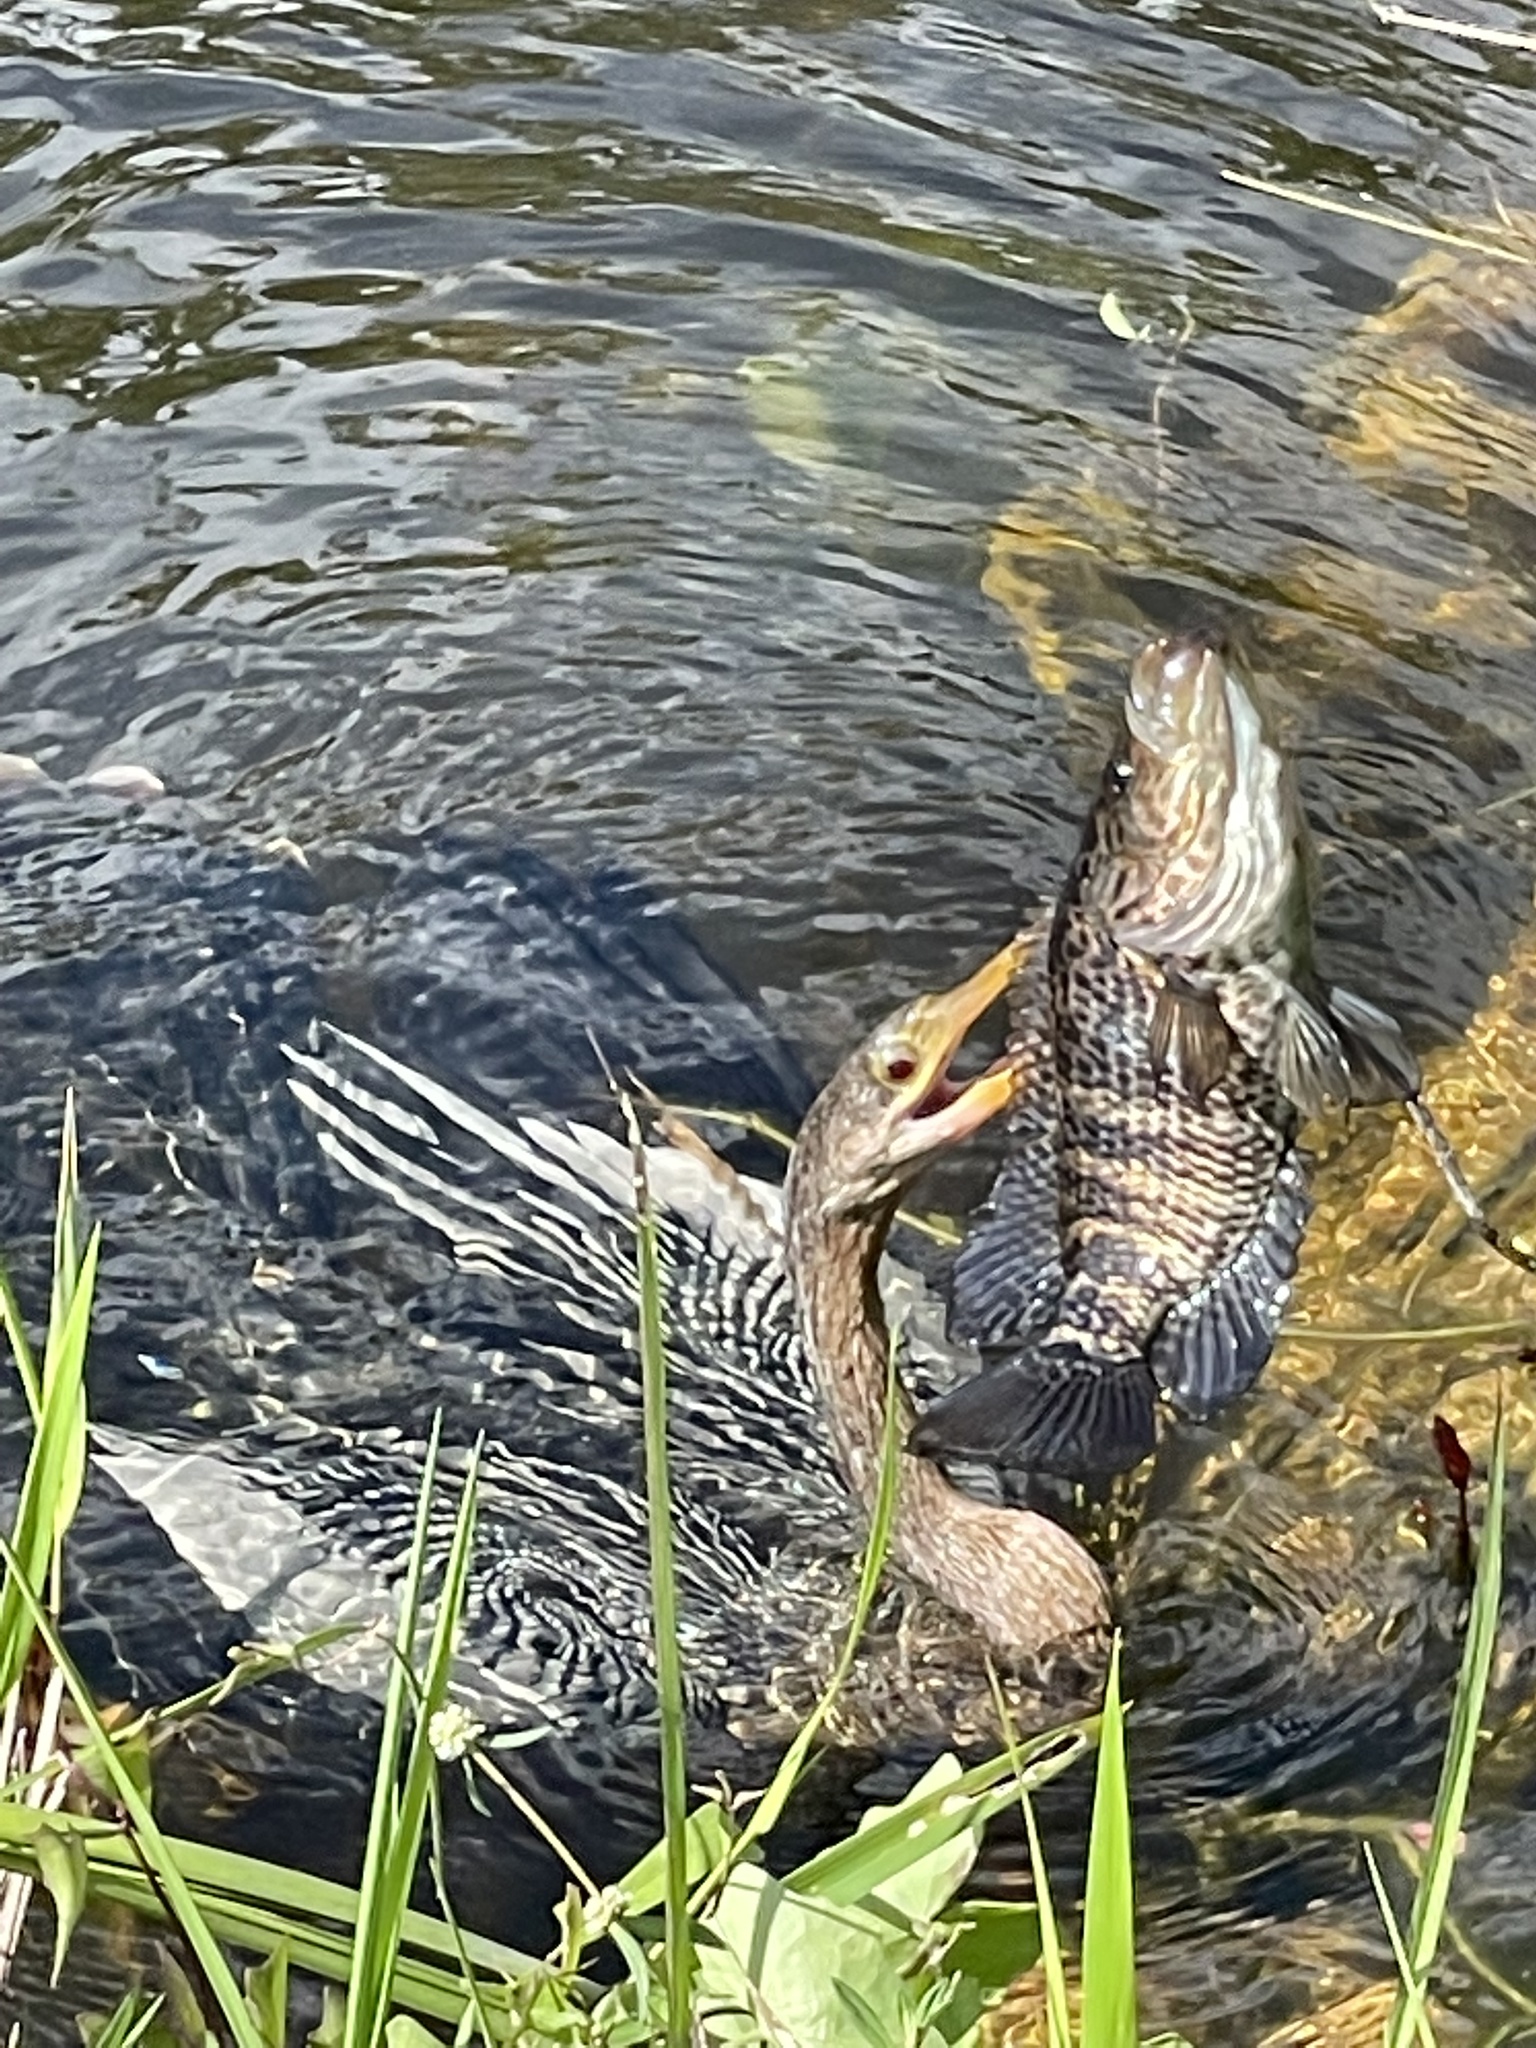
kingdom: Animalia
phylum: Chordata
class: Aves
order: Suliformes
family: Anhingidae
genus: Anhinga
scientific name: Anhinga anhinga
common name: Anhinga
